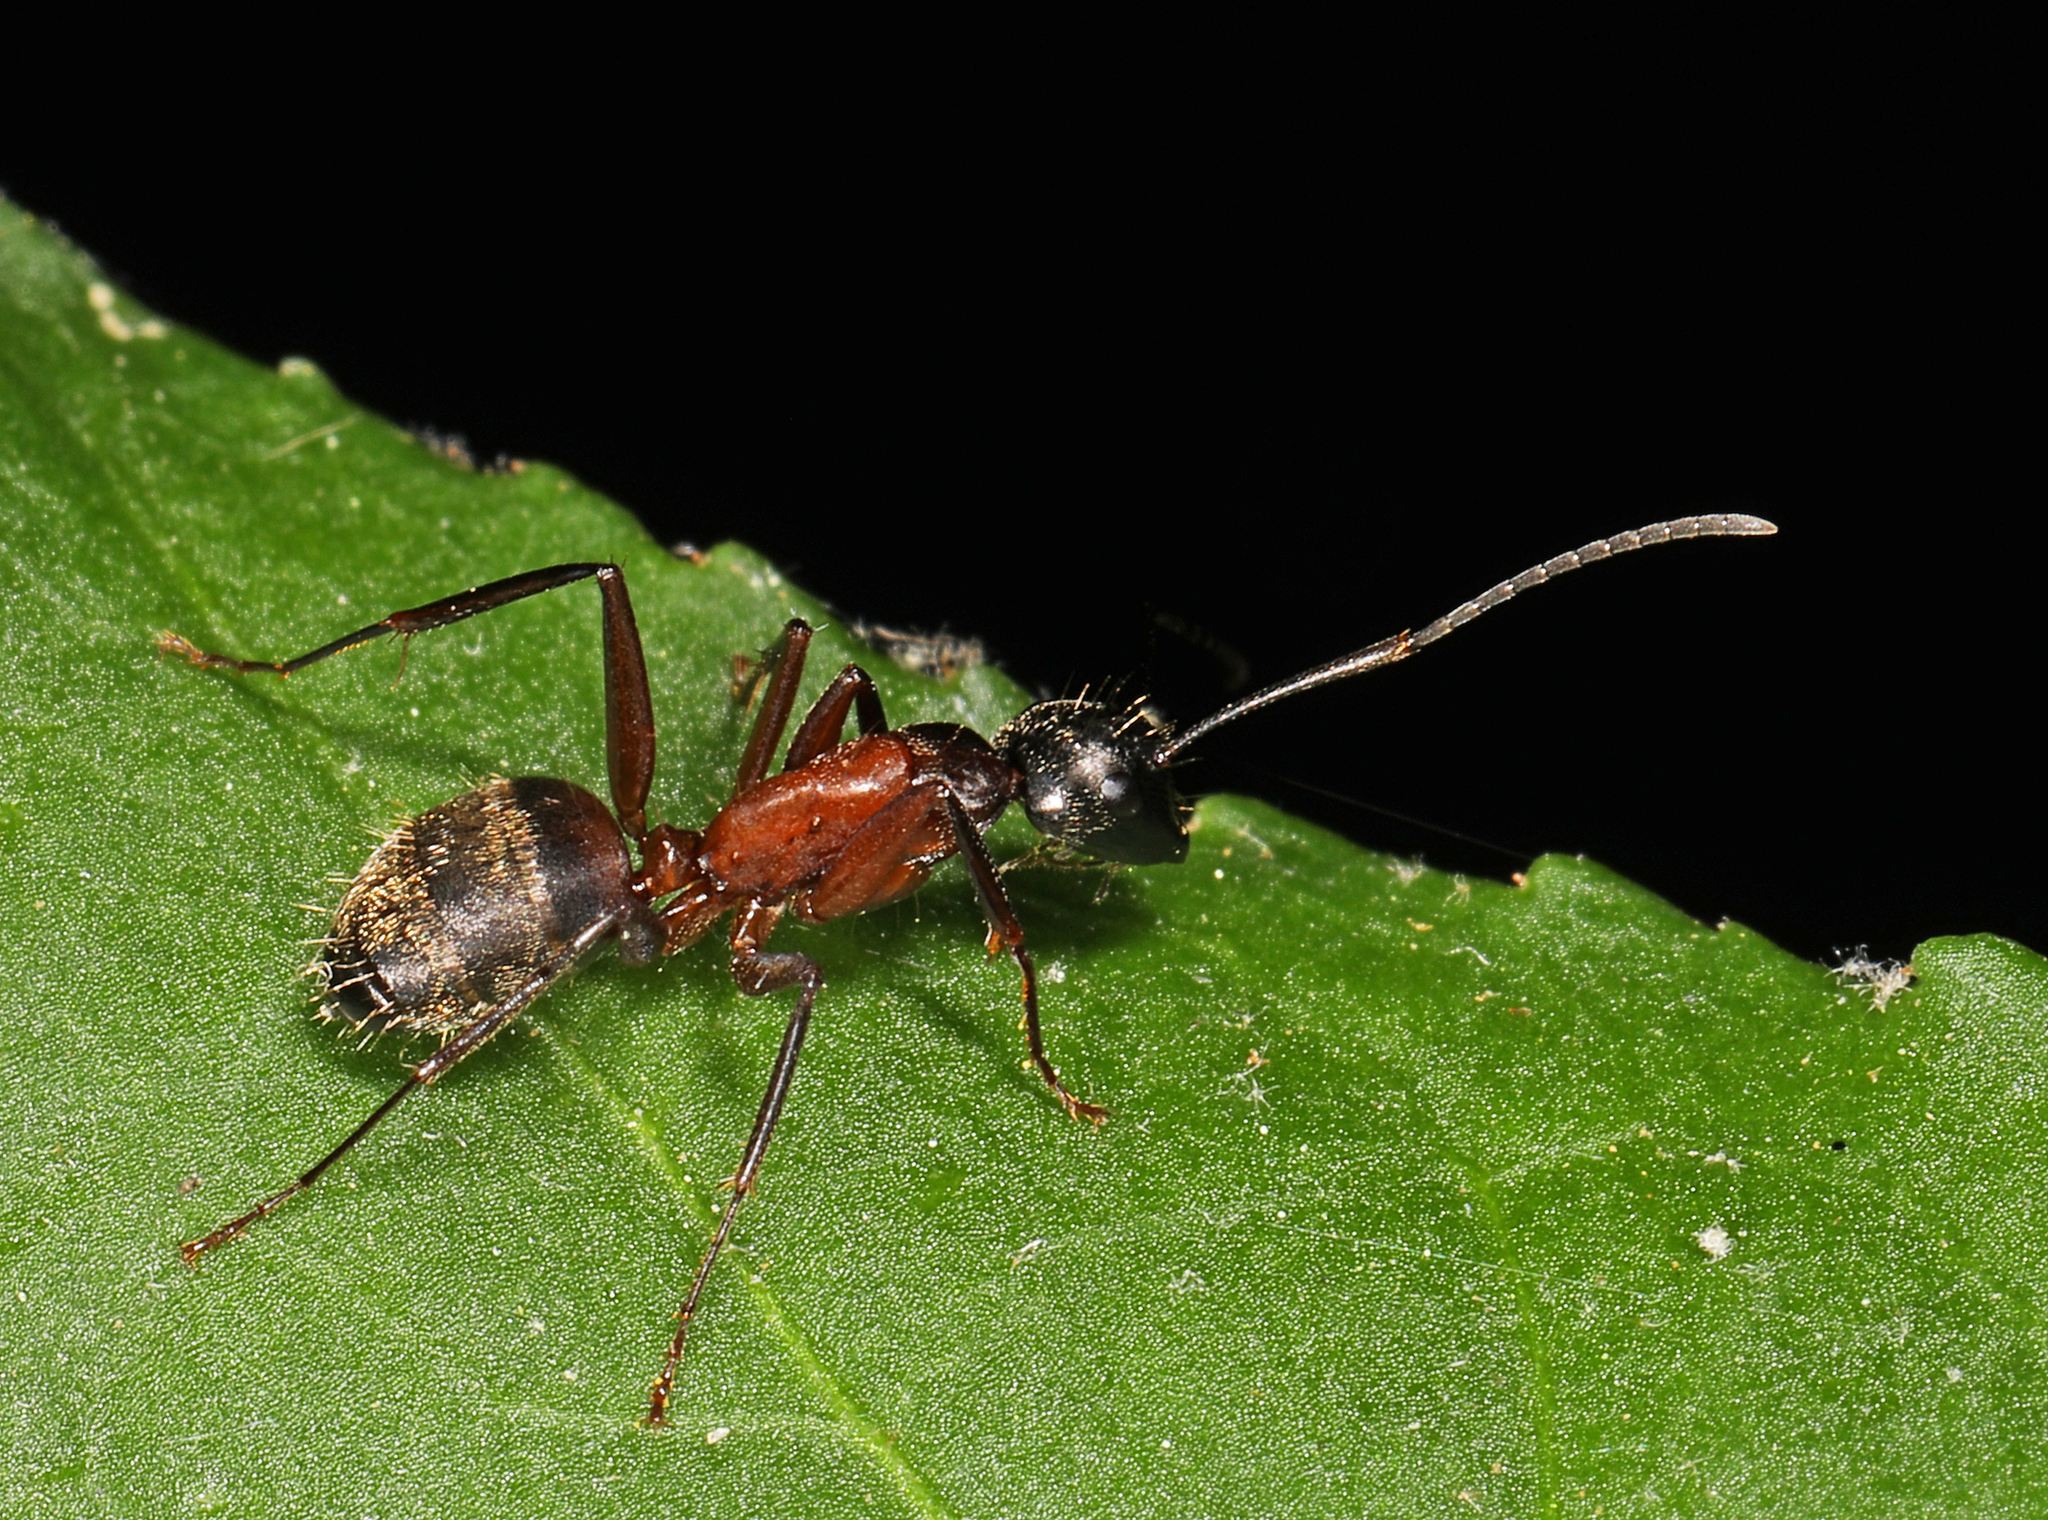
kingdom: Animalia
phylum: Arthropoda
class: Insecta
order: Hymenoptera
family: Formicidae
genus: Camponotus
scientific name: Camponotus chromaiodes
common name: Red carpenter ant
